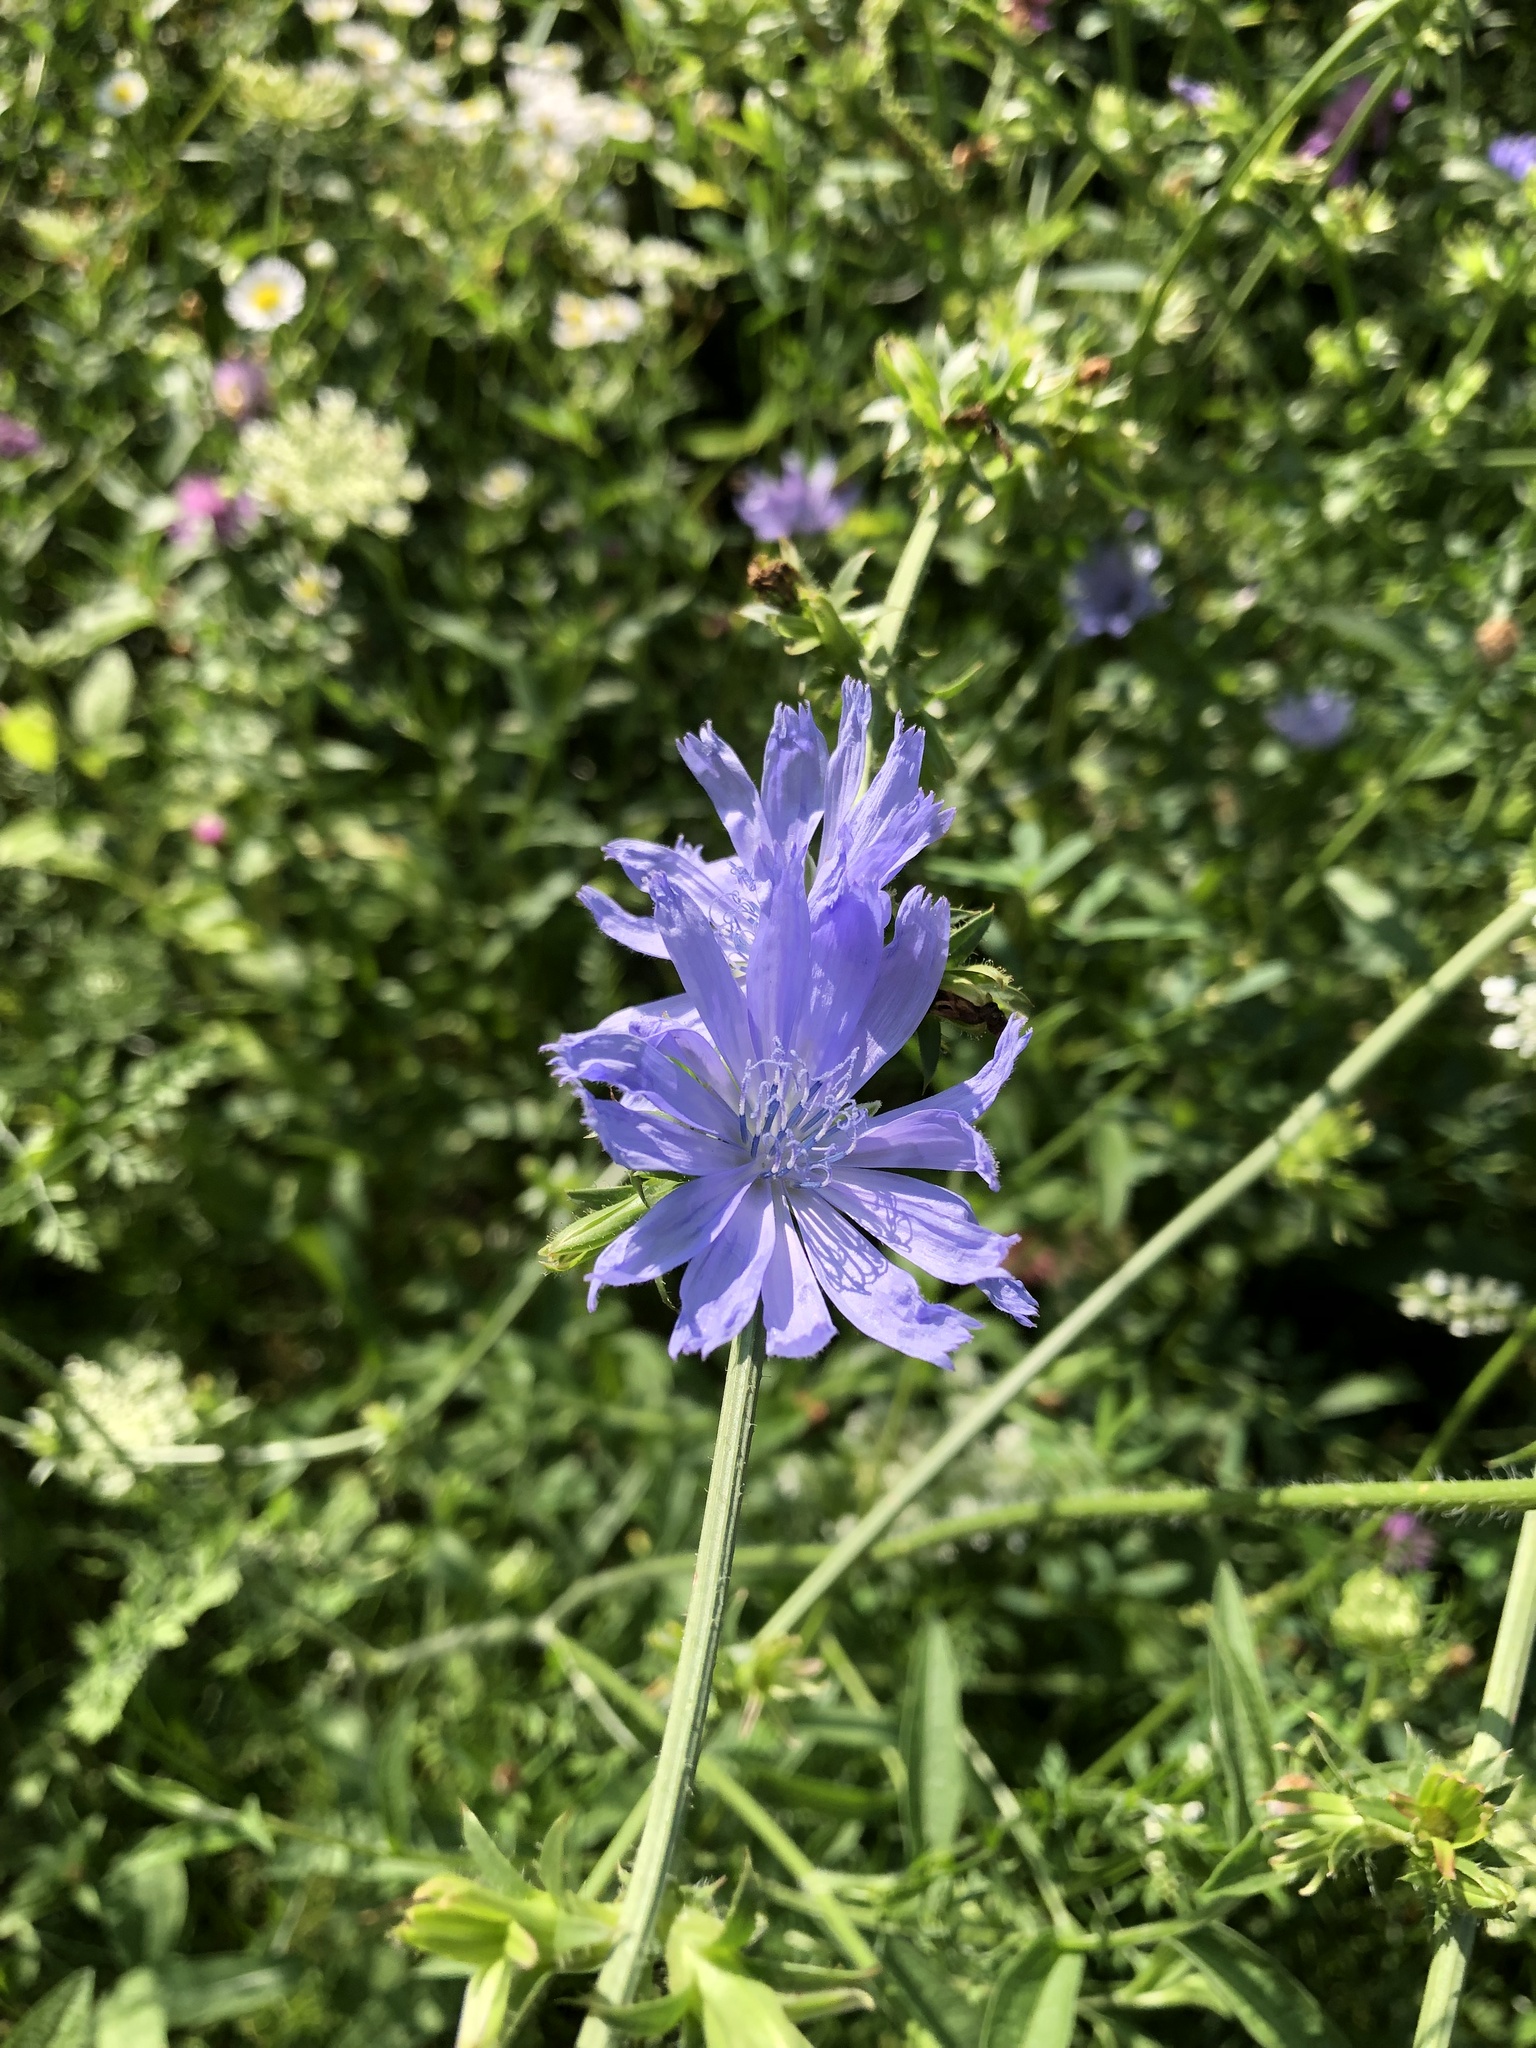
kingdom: Plantae
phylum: Tracheophyta
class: Magnoliopsida
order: Asterales
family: Asteraceae
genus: Cichorium
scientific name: Cichorium intybus
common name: Chicory
